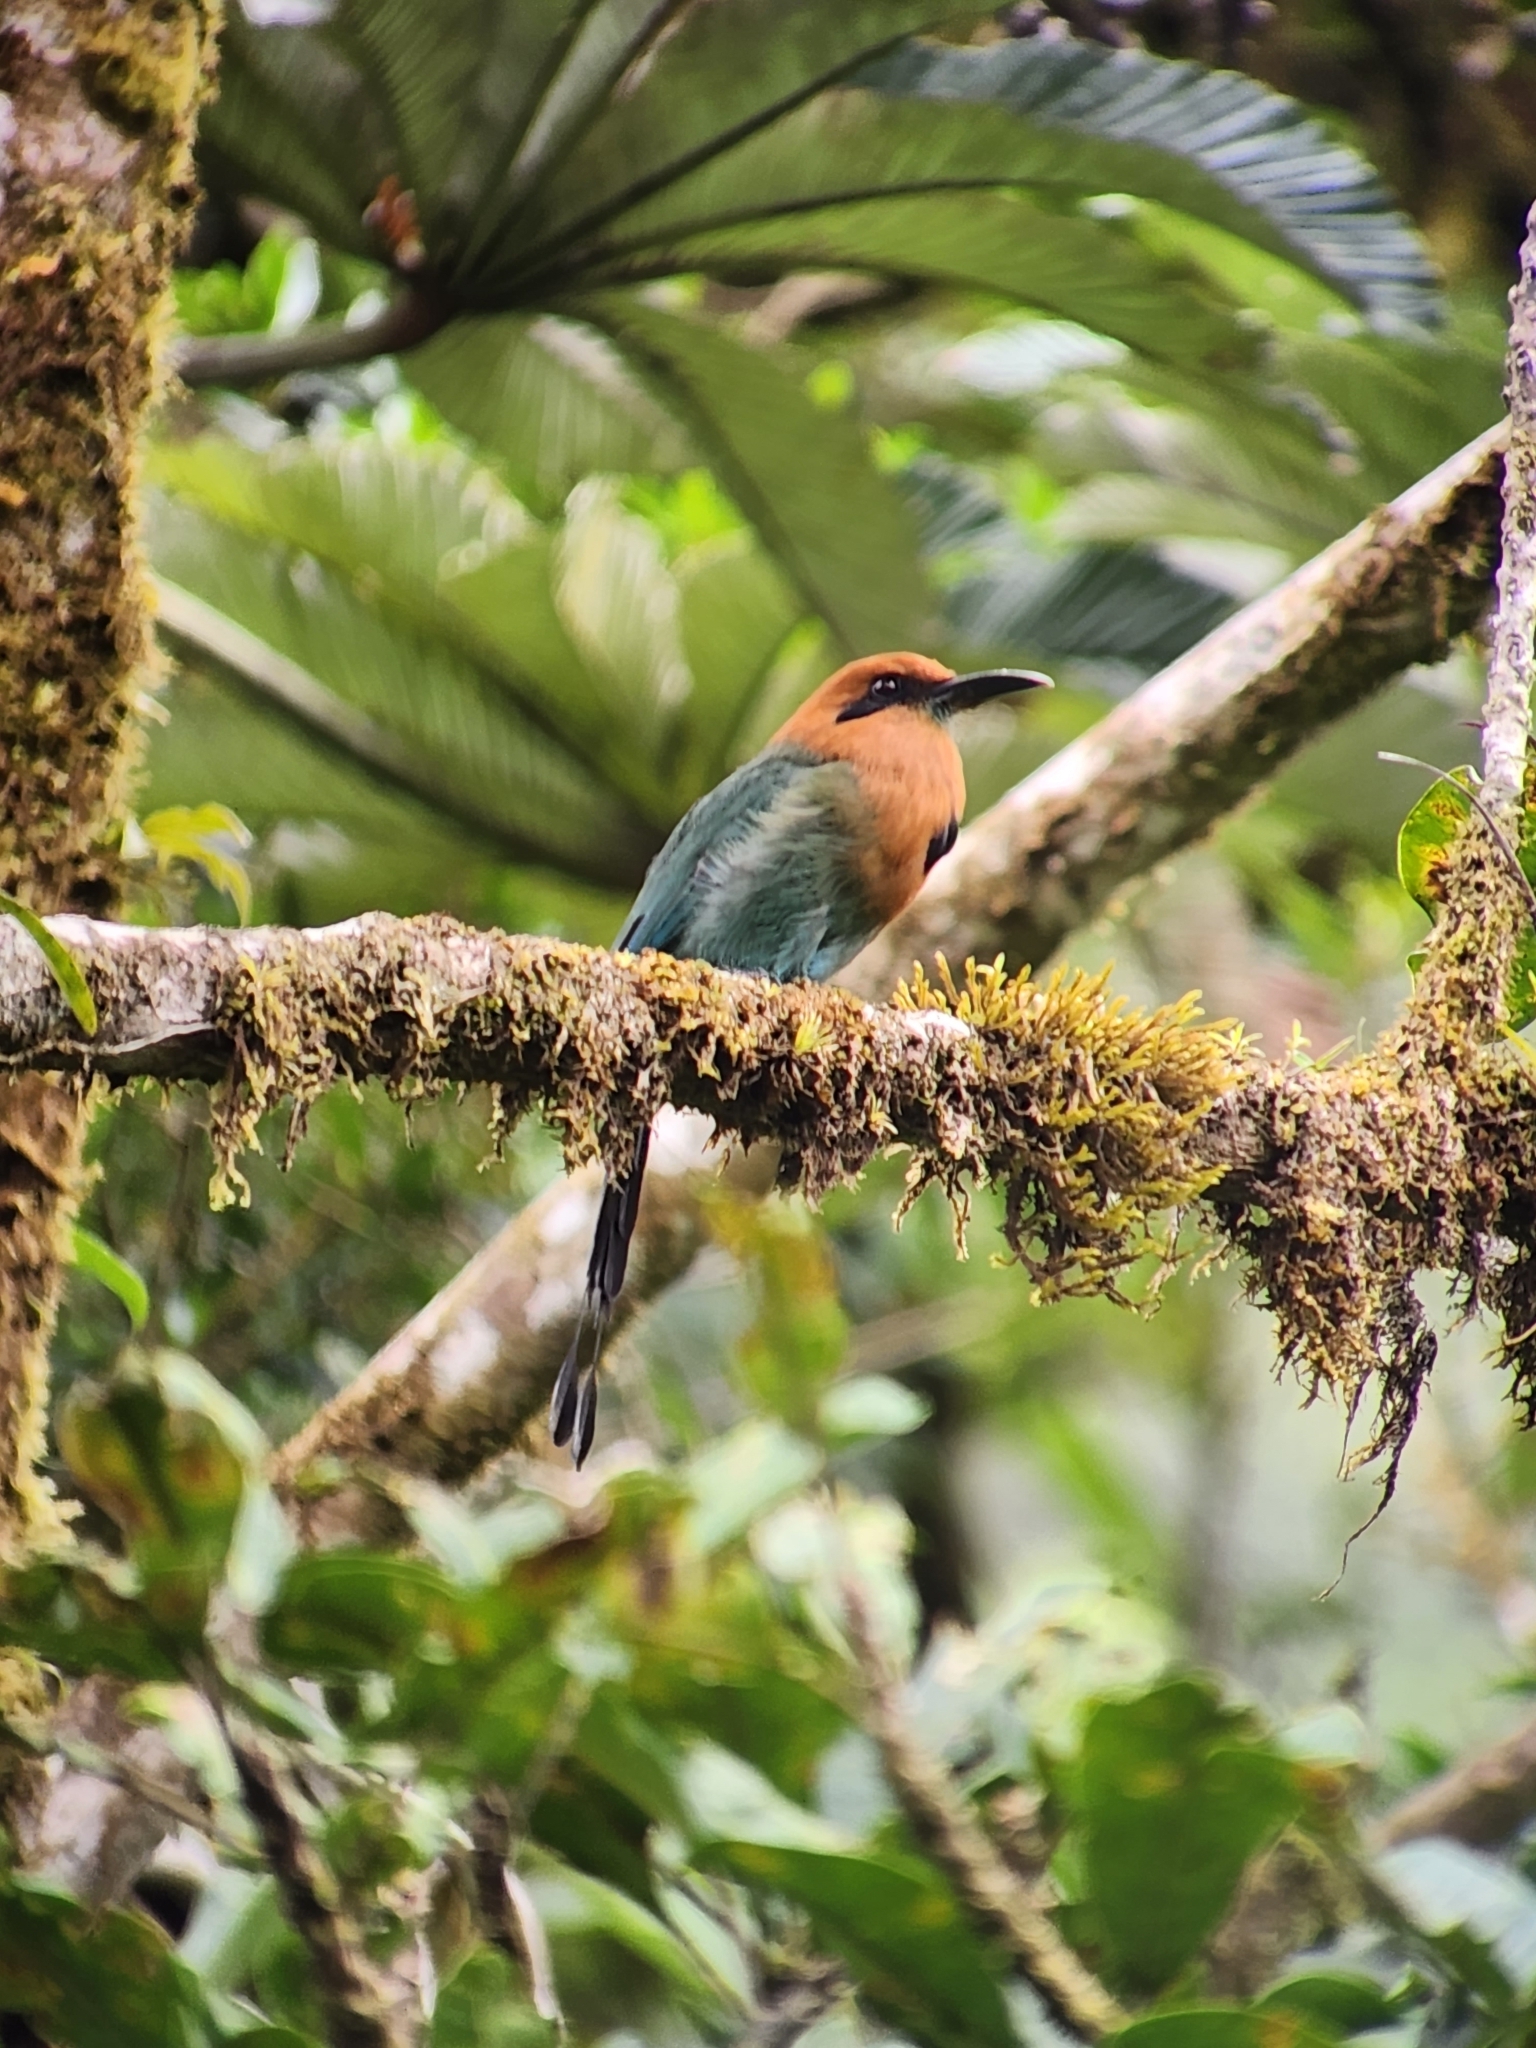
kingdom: Animalia
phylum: Chordata
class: Aves
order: Coraciiformes
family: Momotidae
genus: Electron
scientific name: Electron platyrhynchum
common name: Broad-billed motmot
